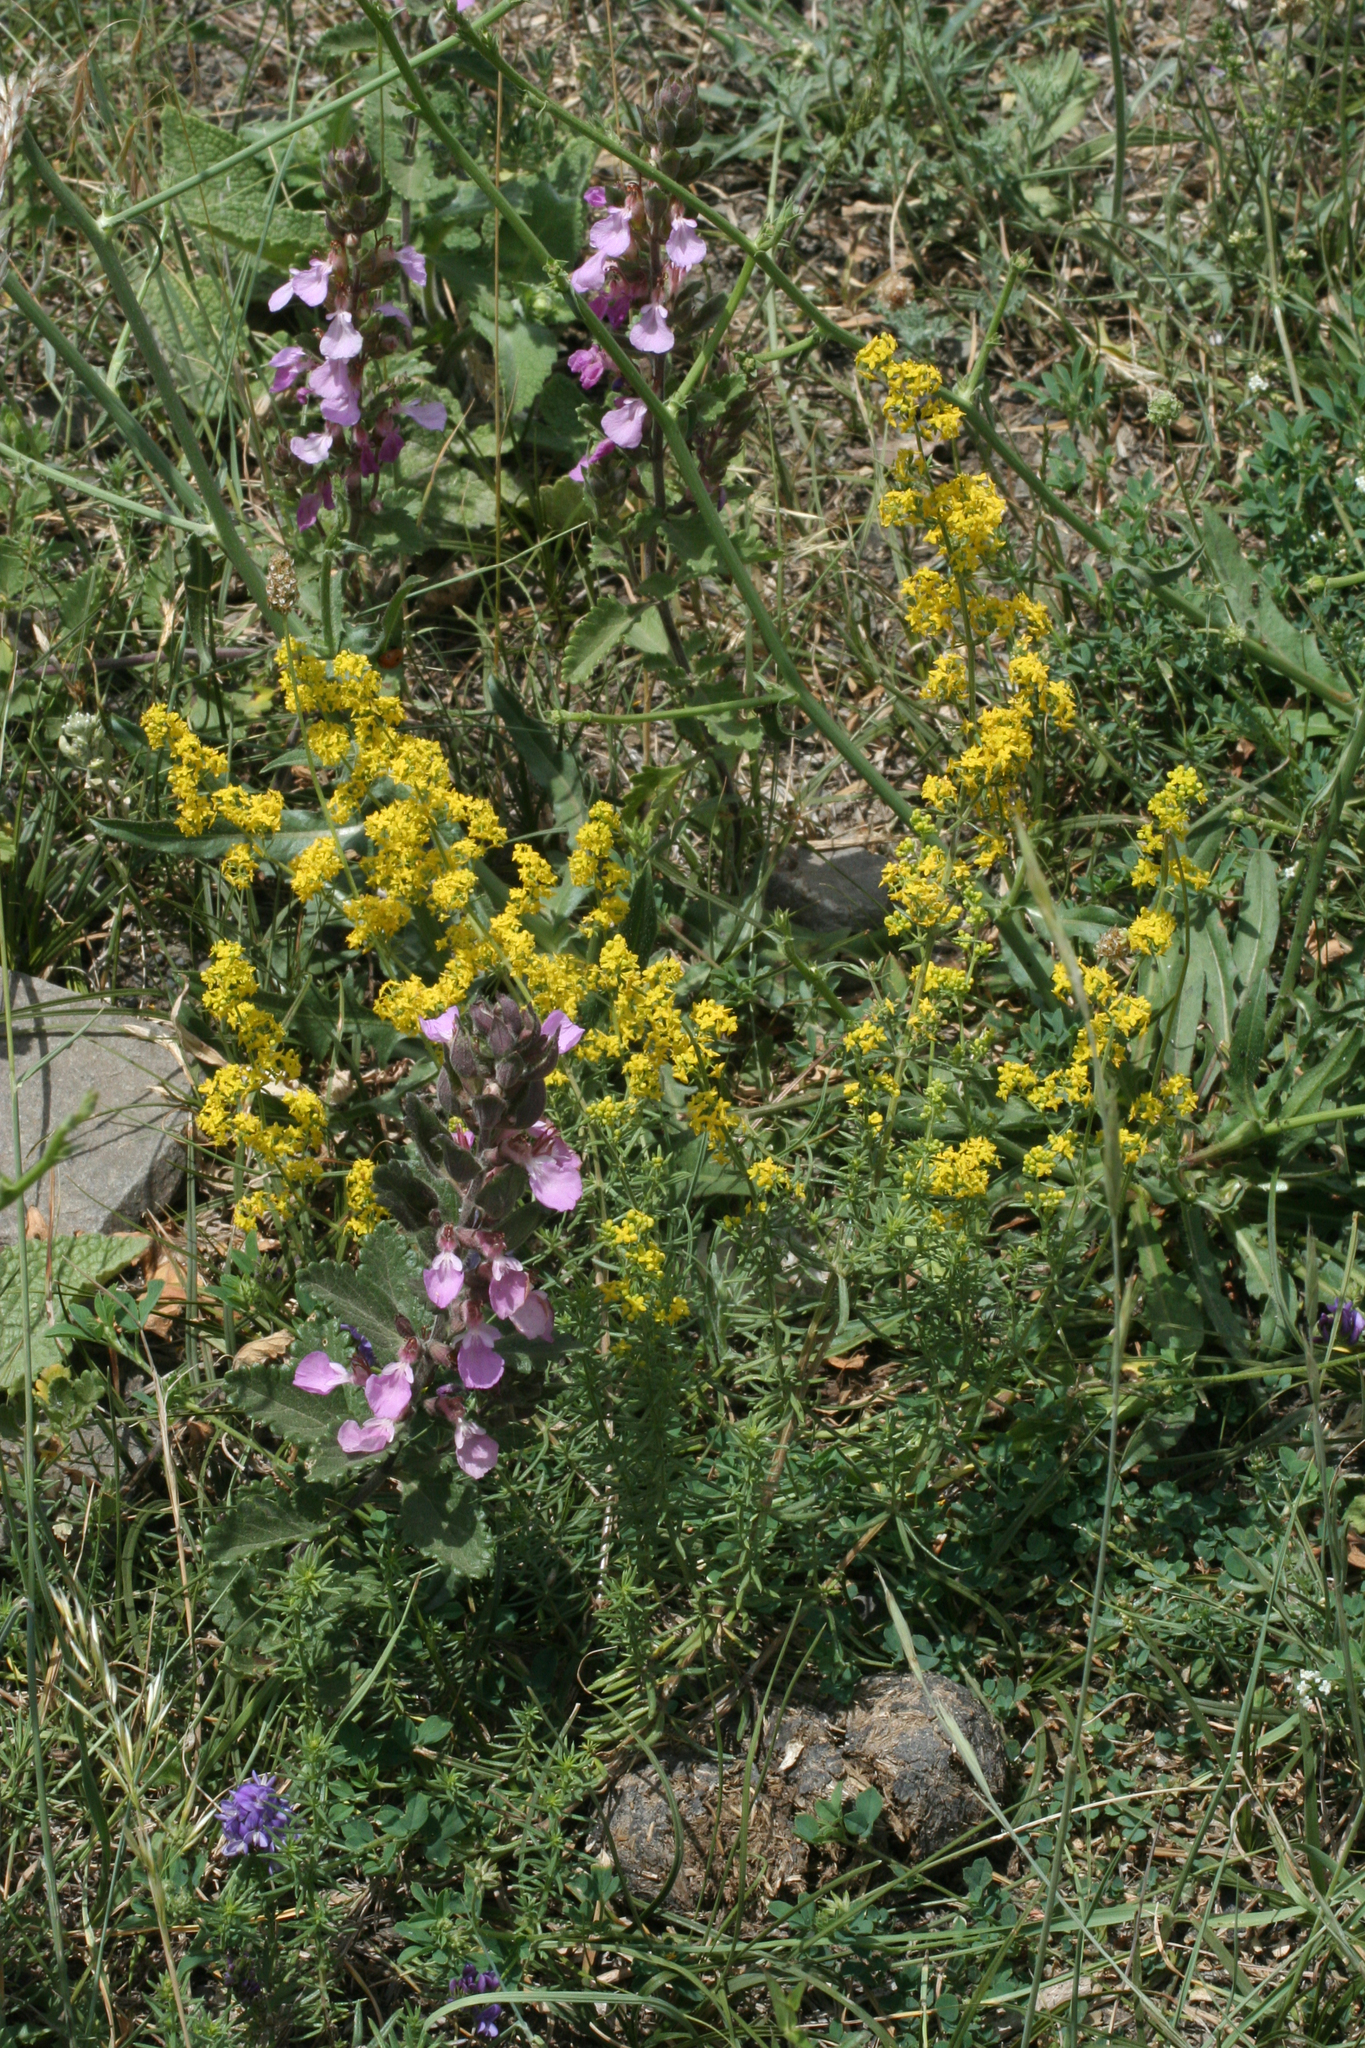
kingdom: Plantae
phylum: Tracheophyta
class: Magnoliopsida
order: Gentianales
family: Rubiaceae
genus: Galium
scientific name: Galium verum
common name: Lady's bedstraw
